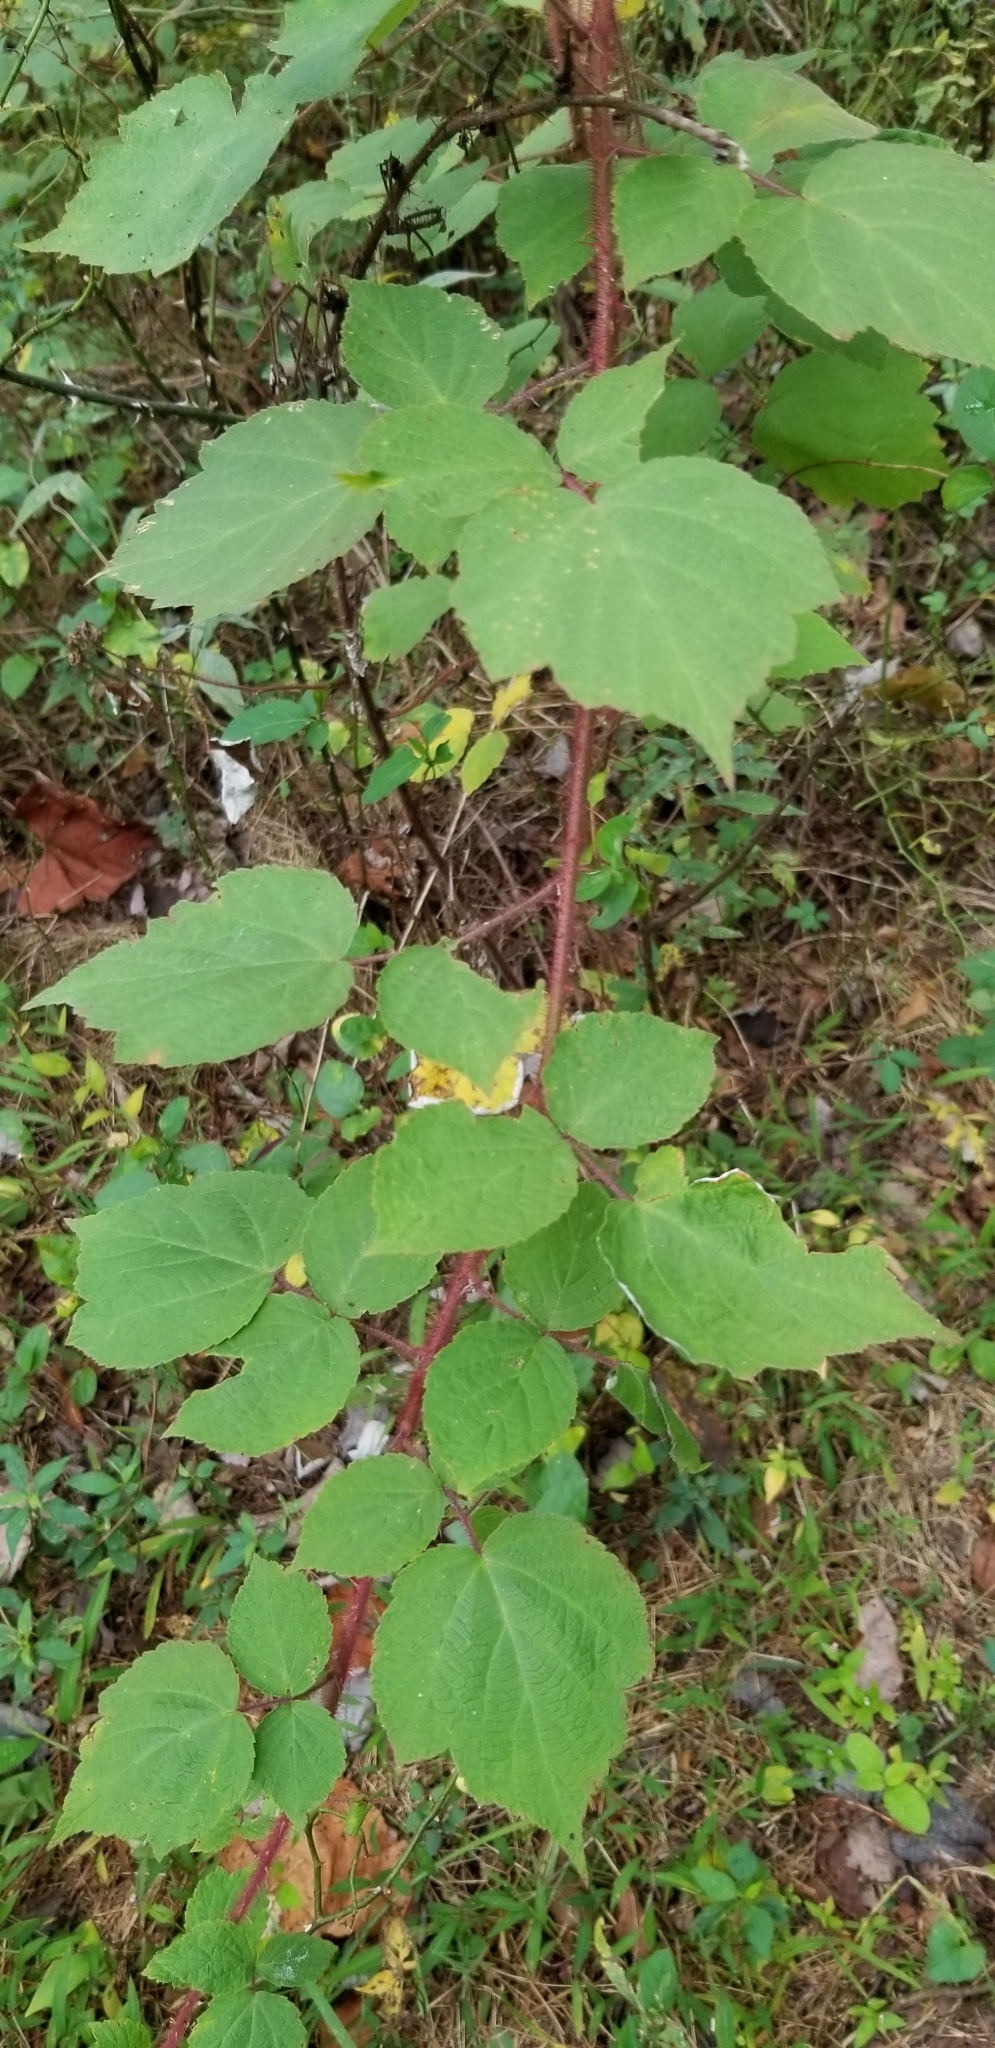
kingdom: Plantae
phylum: Tracheophyta
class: Magnoliopsida
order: Rosales
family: Rosaceae
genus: Rubus
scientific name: Rubus phoenicolasius
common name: Japanese wineberry
